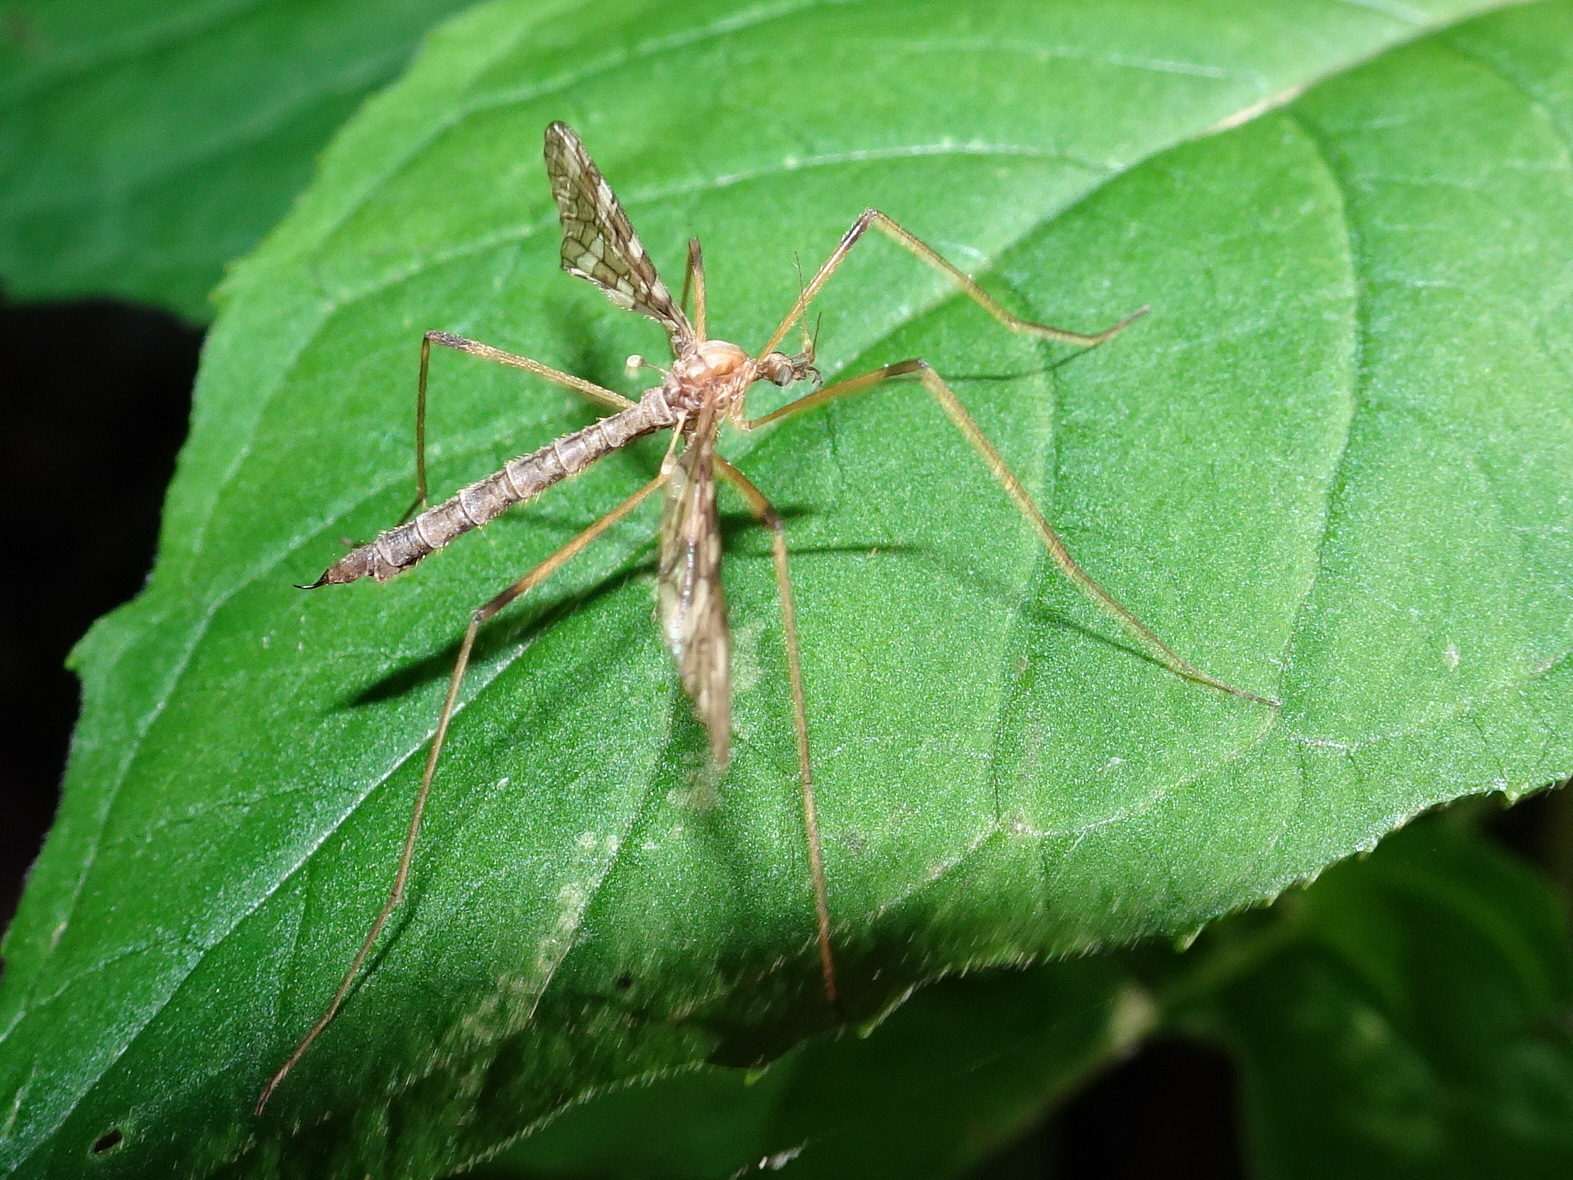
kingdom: Animalia
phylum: Arthropoda
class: Insecta
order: Diptera
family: Limoniidae
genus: Epiphragma
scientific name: Epiphragma fasciapenne
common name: Band-winged crane fly
